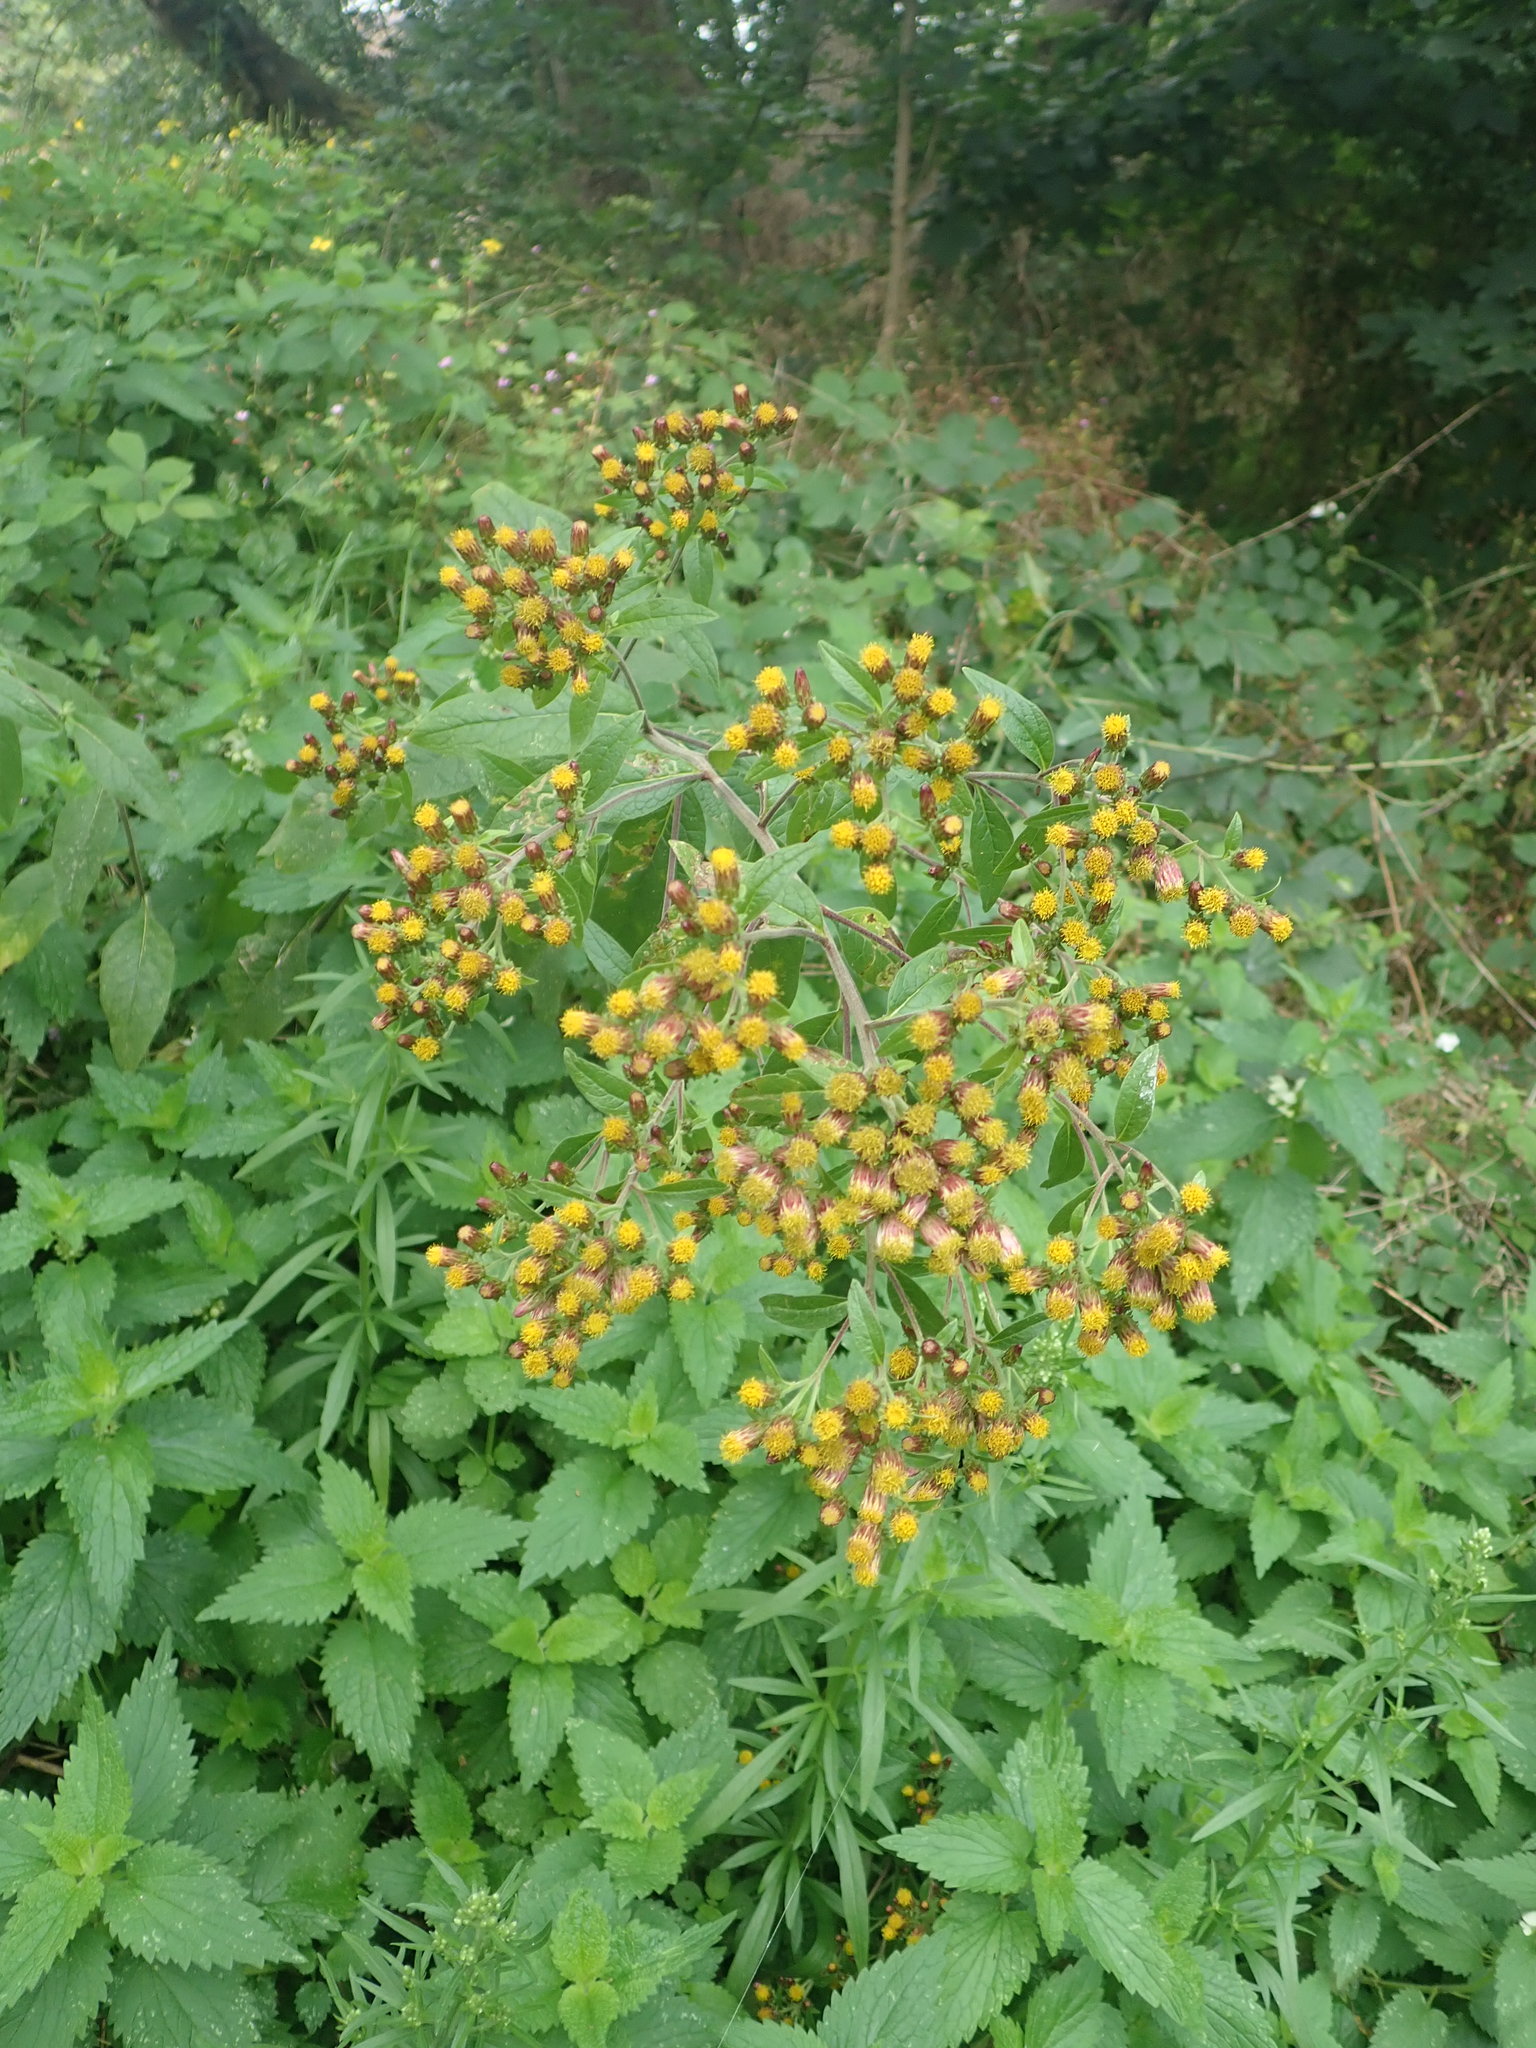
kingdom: Plantae
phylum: Tracheophyta
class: Magnoliopsida
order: Asterales
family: Asteraceae
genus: Pentanema
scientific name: Pentanema squarrosum
